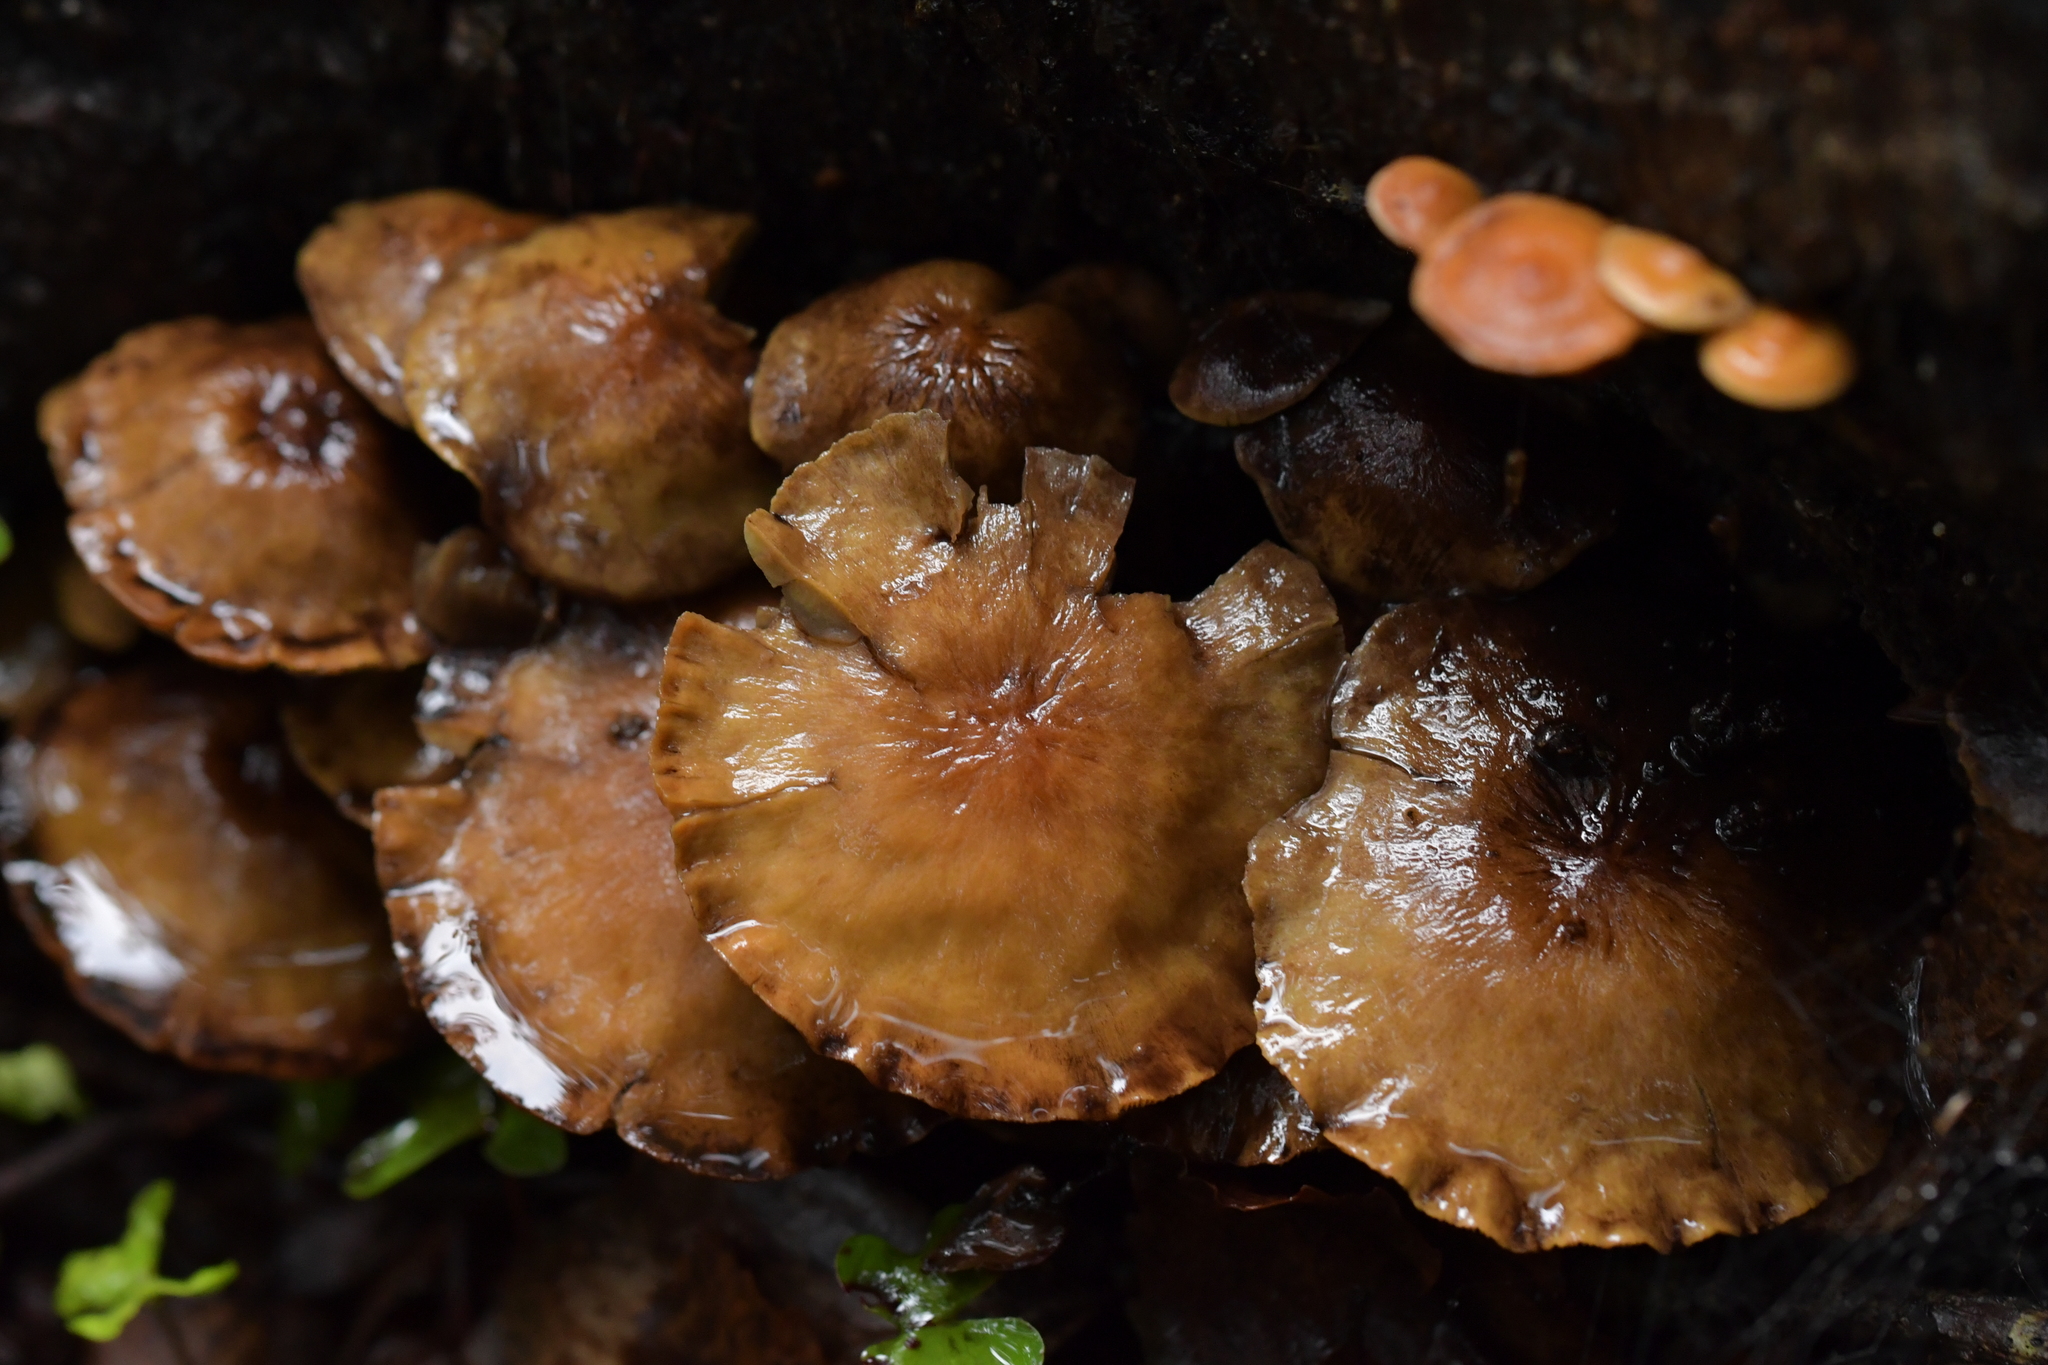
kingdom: Fungi
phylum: Basidiomycota
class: Agaricomycetes
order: Agaricales
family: Strophariaceae
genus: Hypholoma
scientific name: Hypholoma acutum
